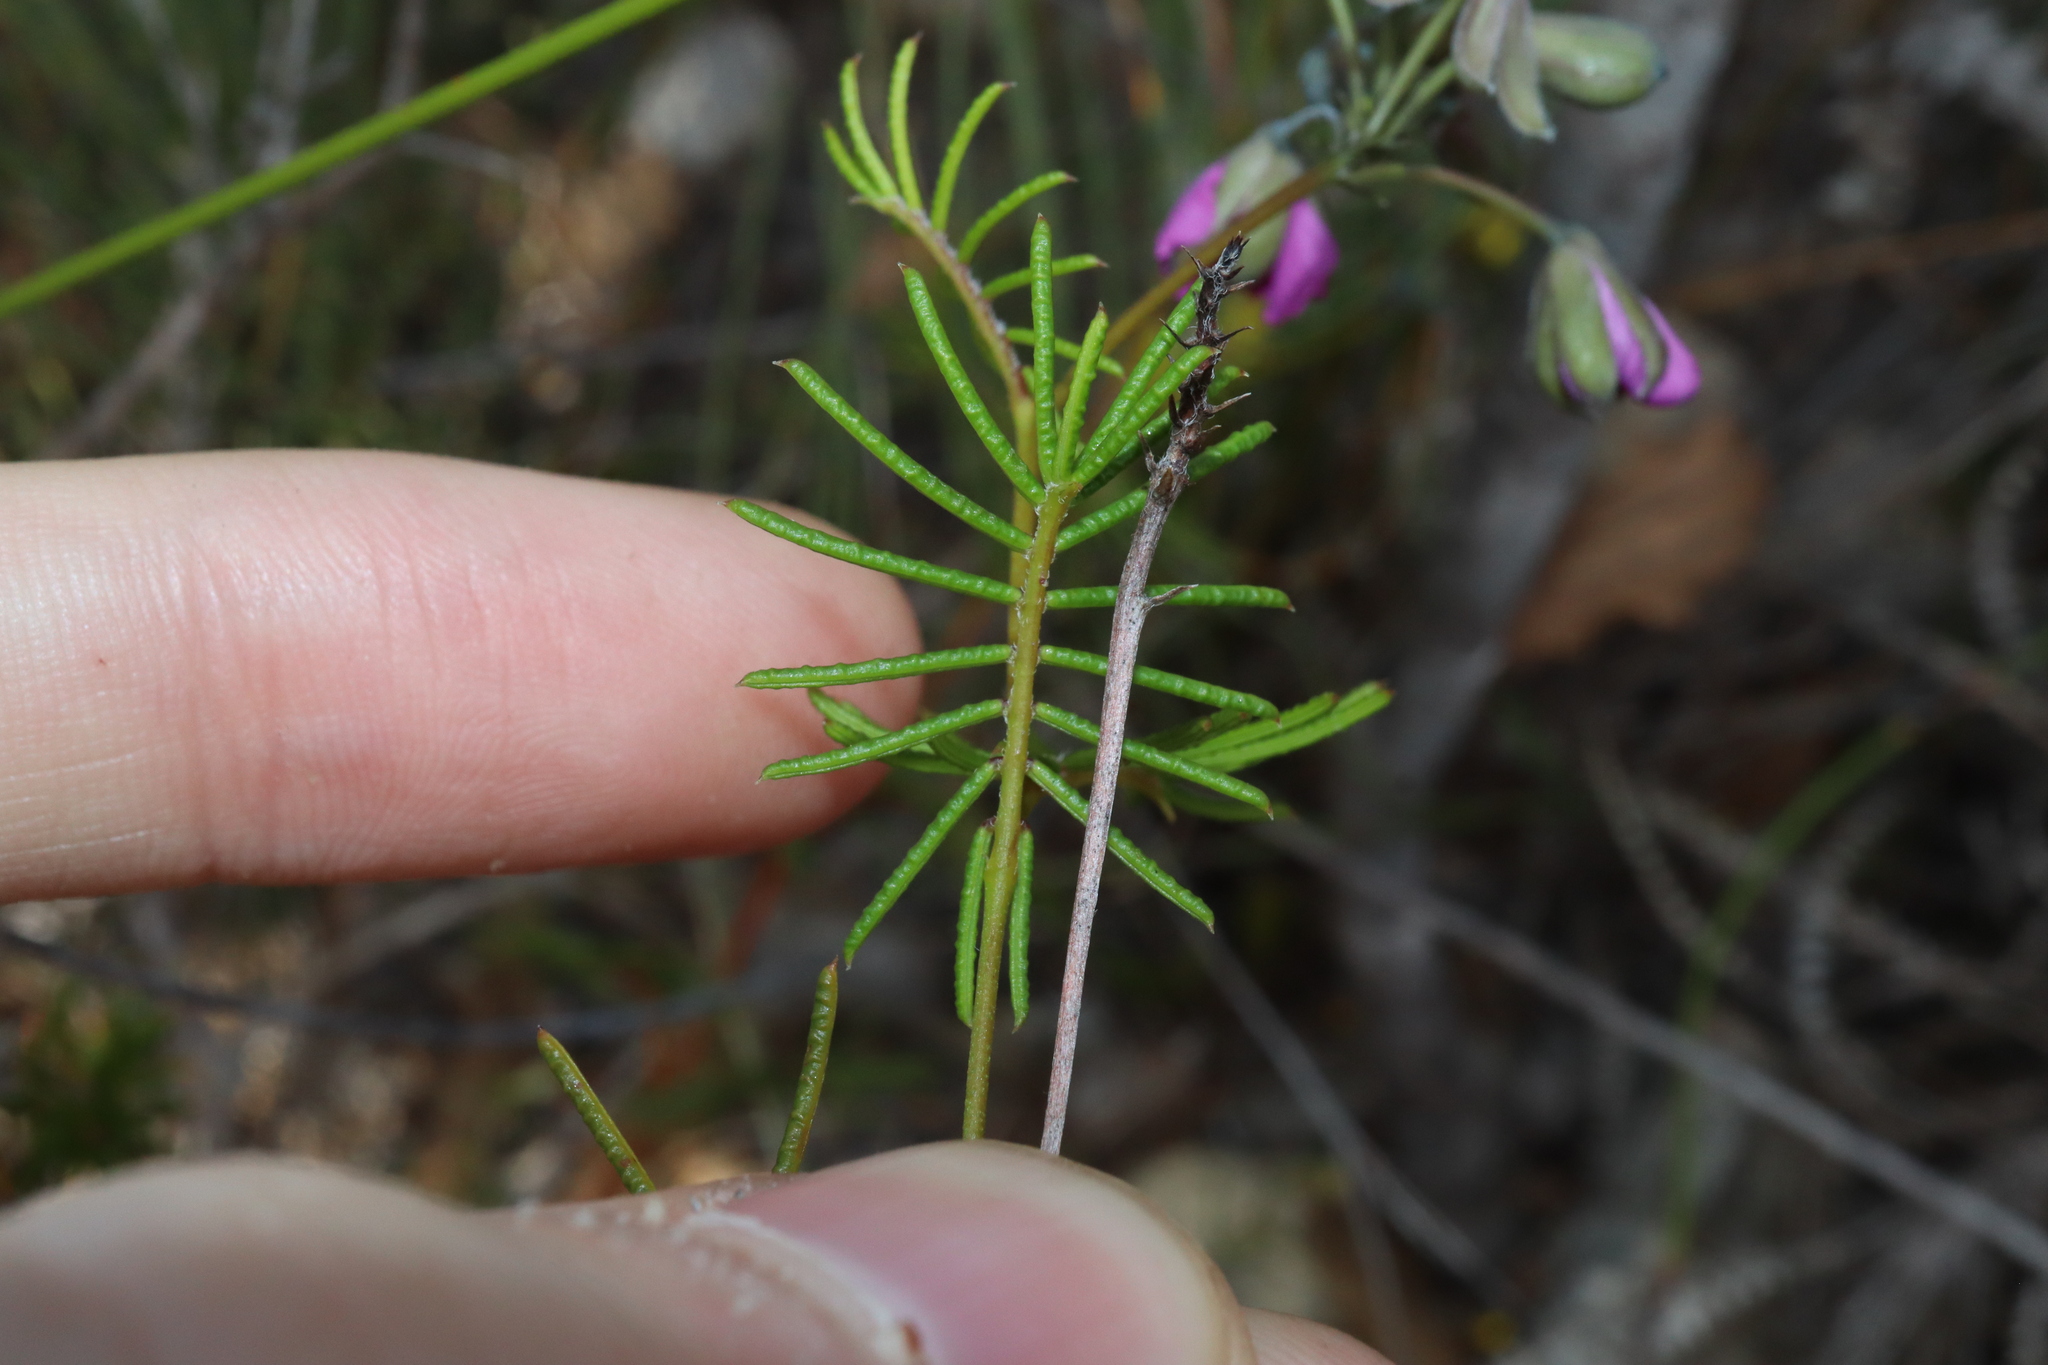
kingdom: Plantae
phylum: Tracheophyta
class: Magnoliopsida
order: Fabales
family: Fabaceae
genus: Gompholobium
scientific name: Gompholobium venustum
